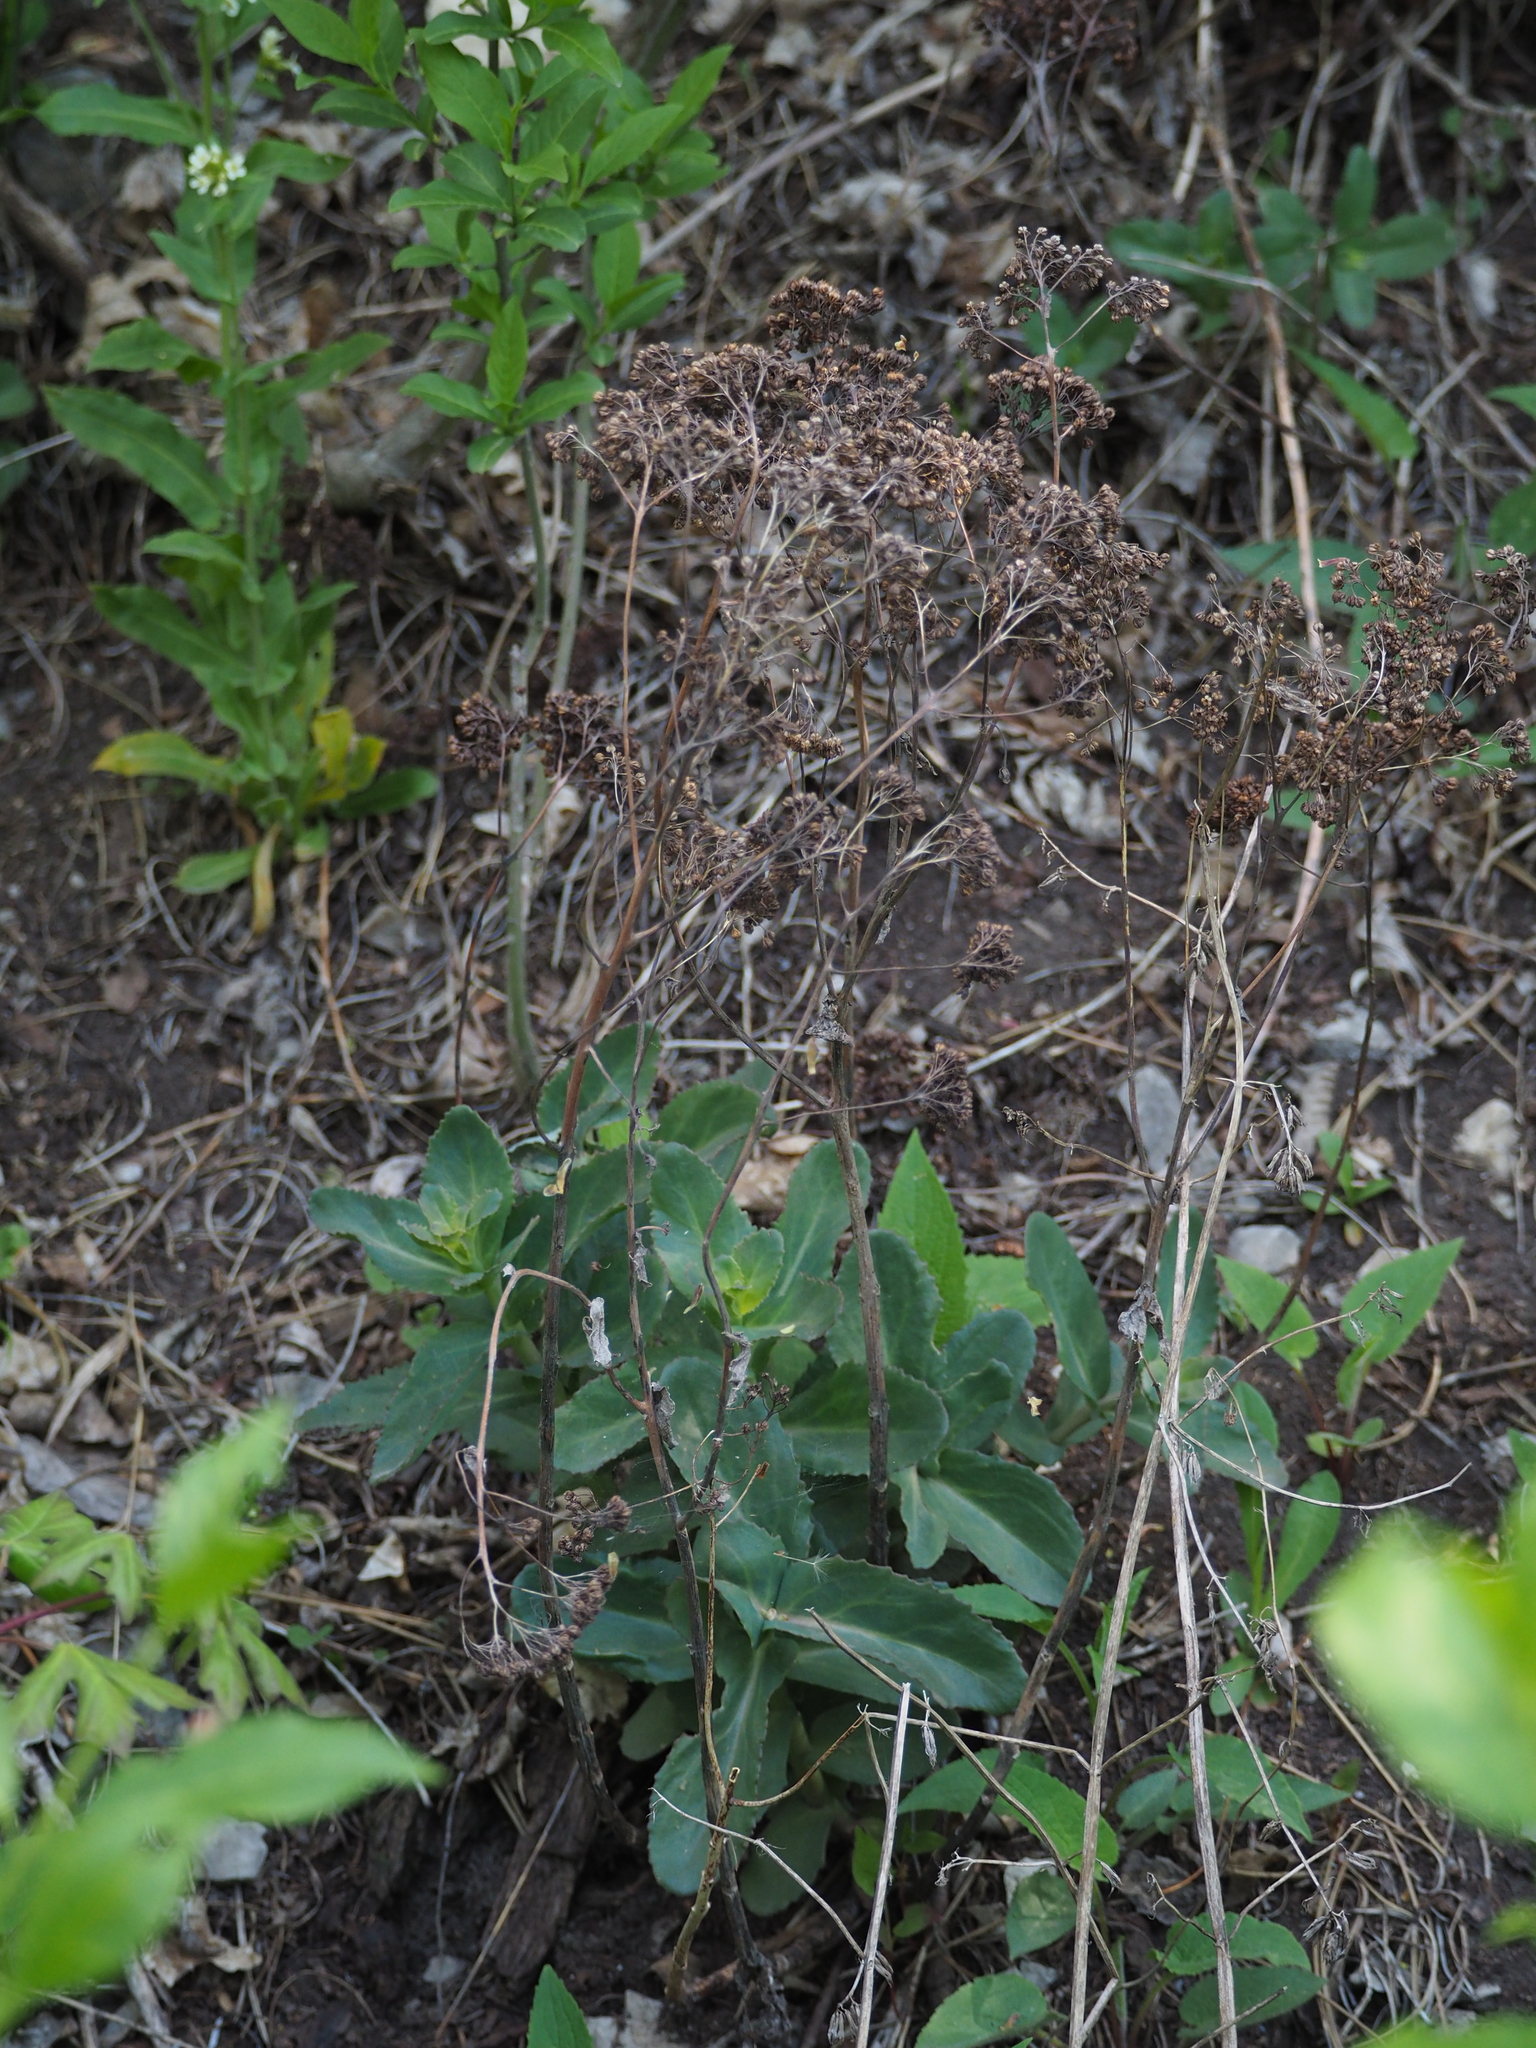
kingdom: Plantae
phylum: Tracheophyta
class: Magnoliopsida
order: Saxifragales
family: Crassulaceae
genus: Hylotelephium
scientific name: Hylotelephium maximum
